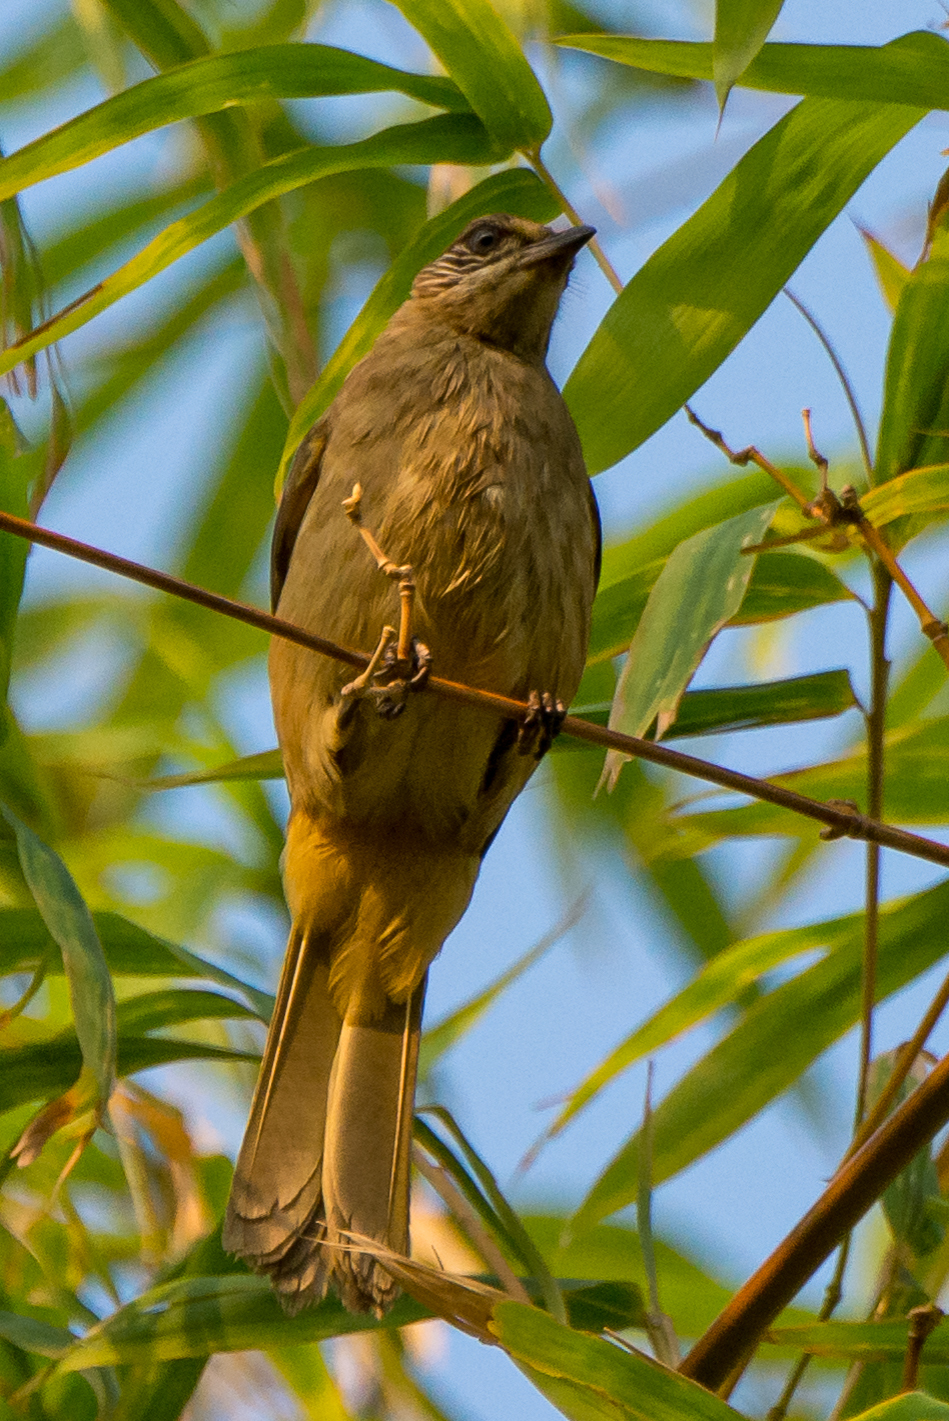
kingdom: Animalia
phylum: Chordata
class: Aves
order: Passeriformes
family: Pycnonotidae
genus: Pycnonotus
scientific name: Pycnonotus blanfordi
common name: Streak-eared bulbul
